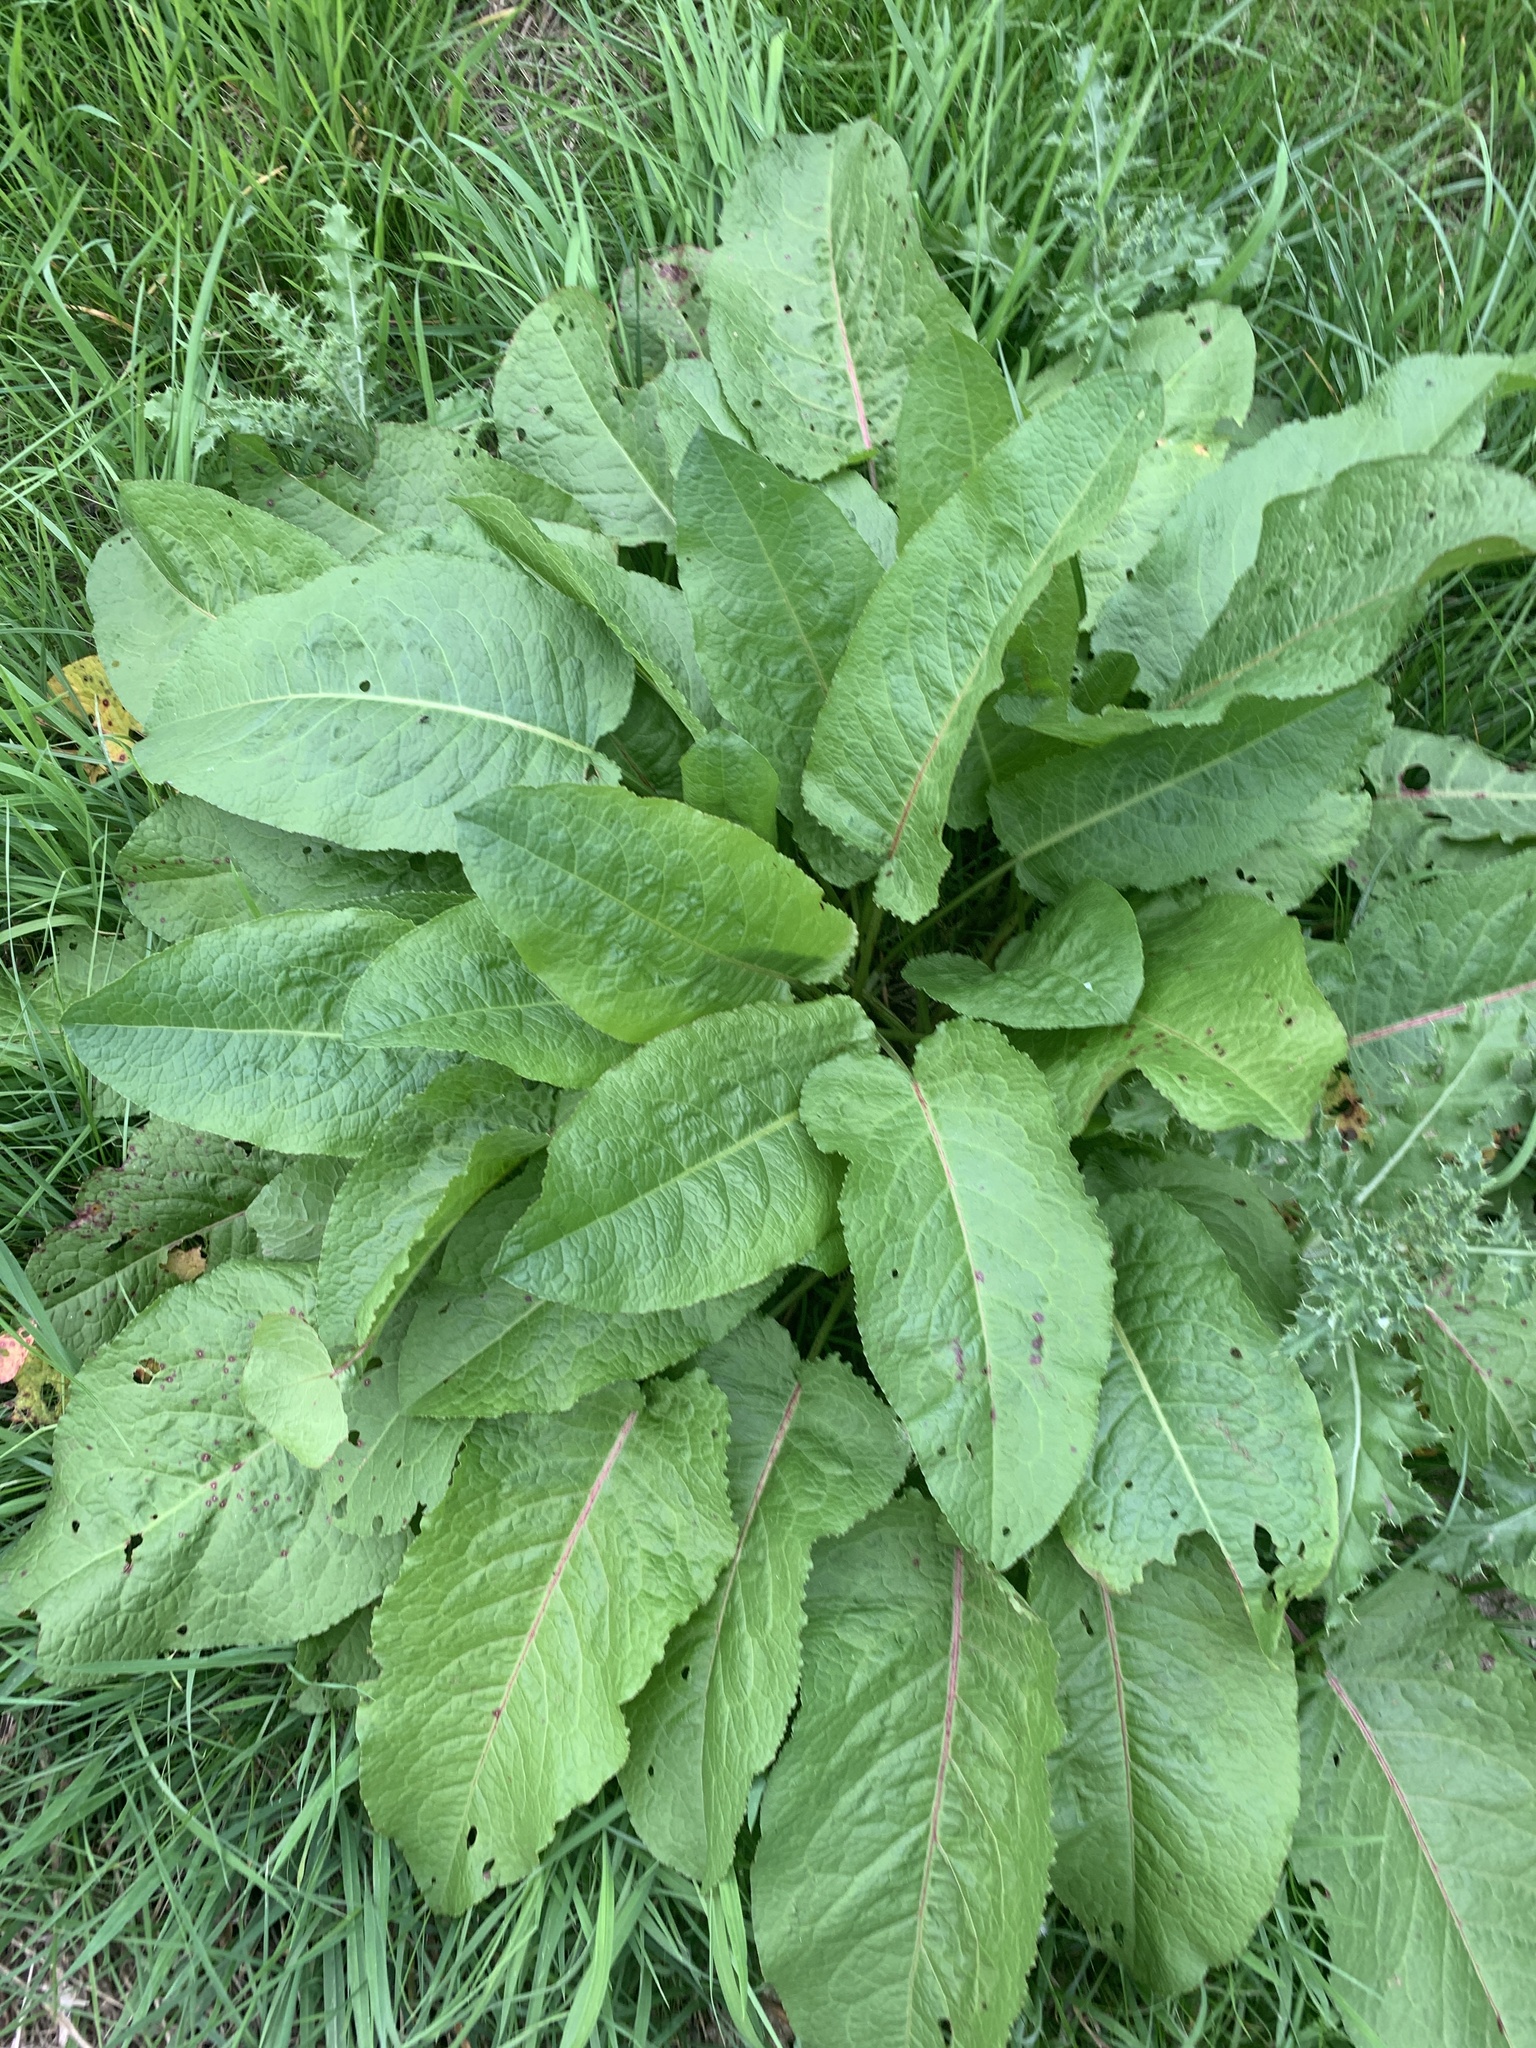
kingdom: Plantae
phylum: Tracheophyta
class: Magnoliopsida
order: Caryophyllales
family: Polygonaceae
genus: Rumex
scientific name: Rumex obtusifolius
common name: Bitter dock
